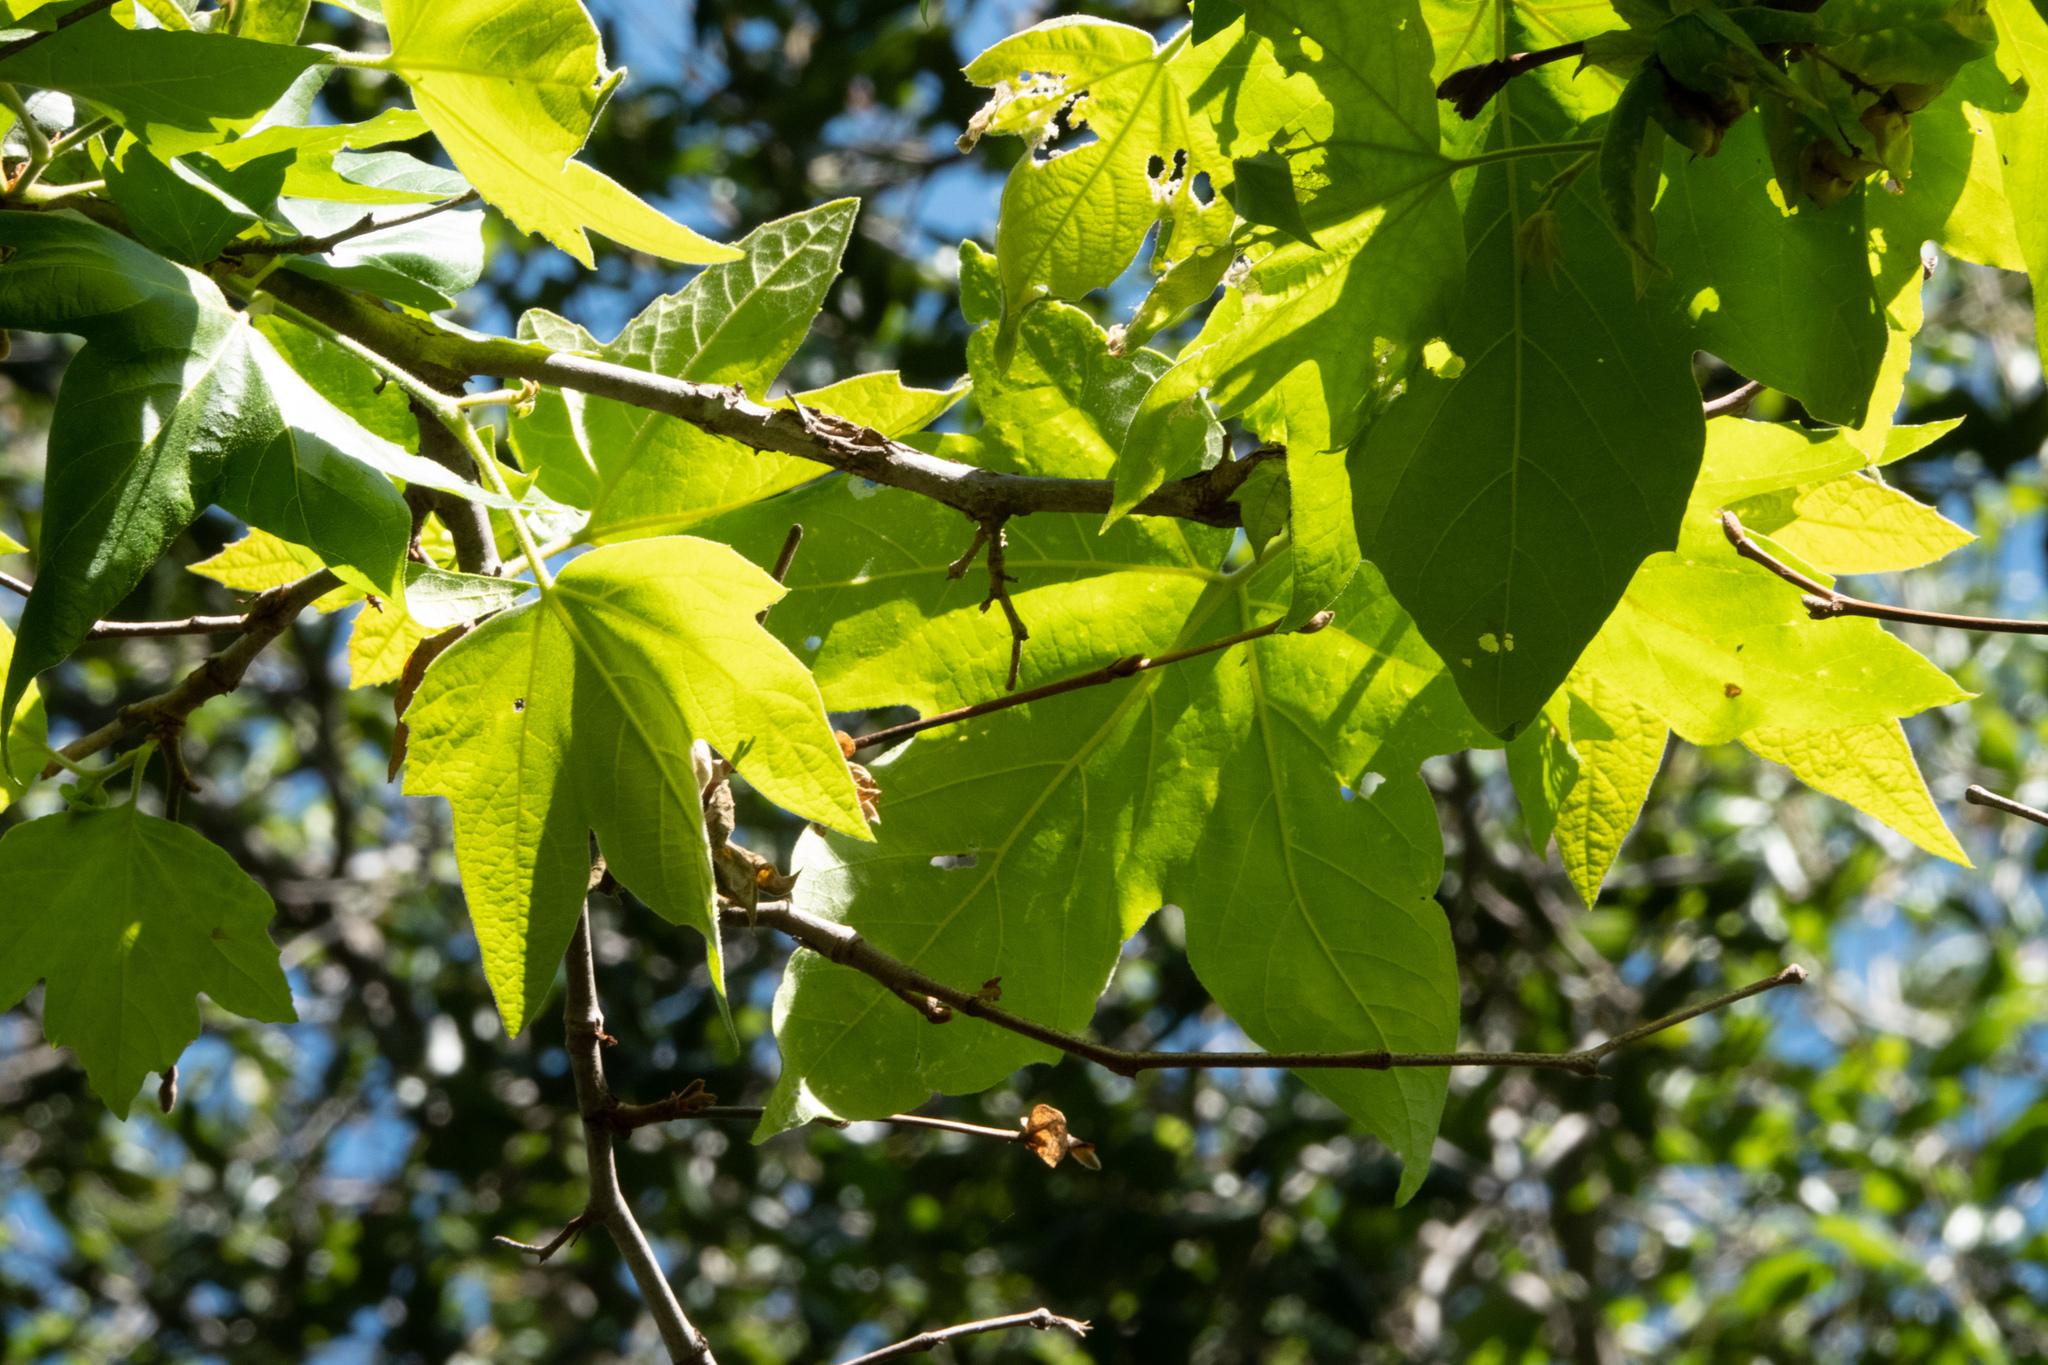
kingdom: Plantae
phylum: Tracheophyta
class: Magnoliopsida
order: Proteales
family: Platanaceae
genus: Platanus
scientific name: Platanus racemosa
